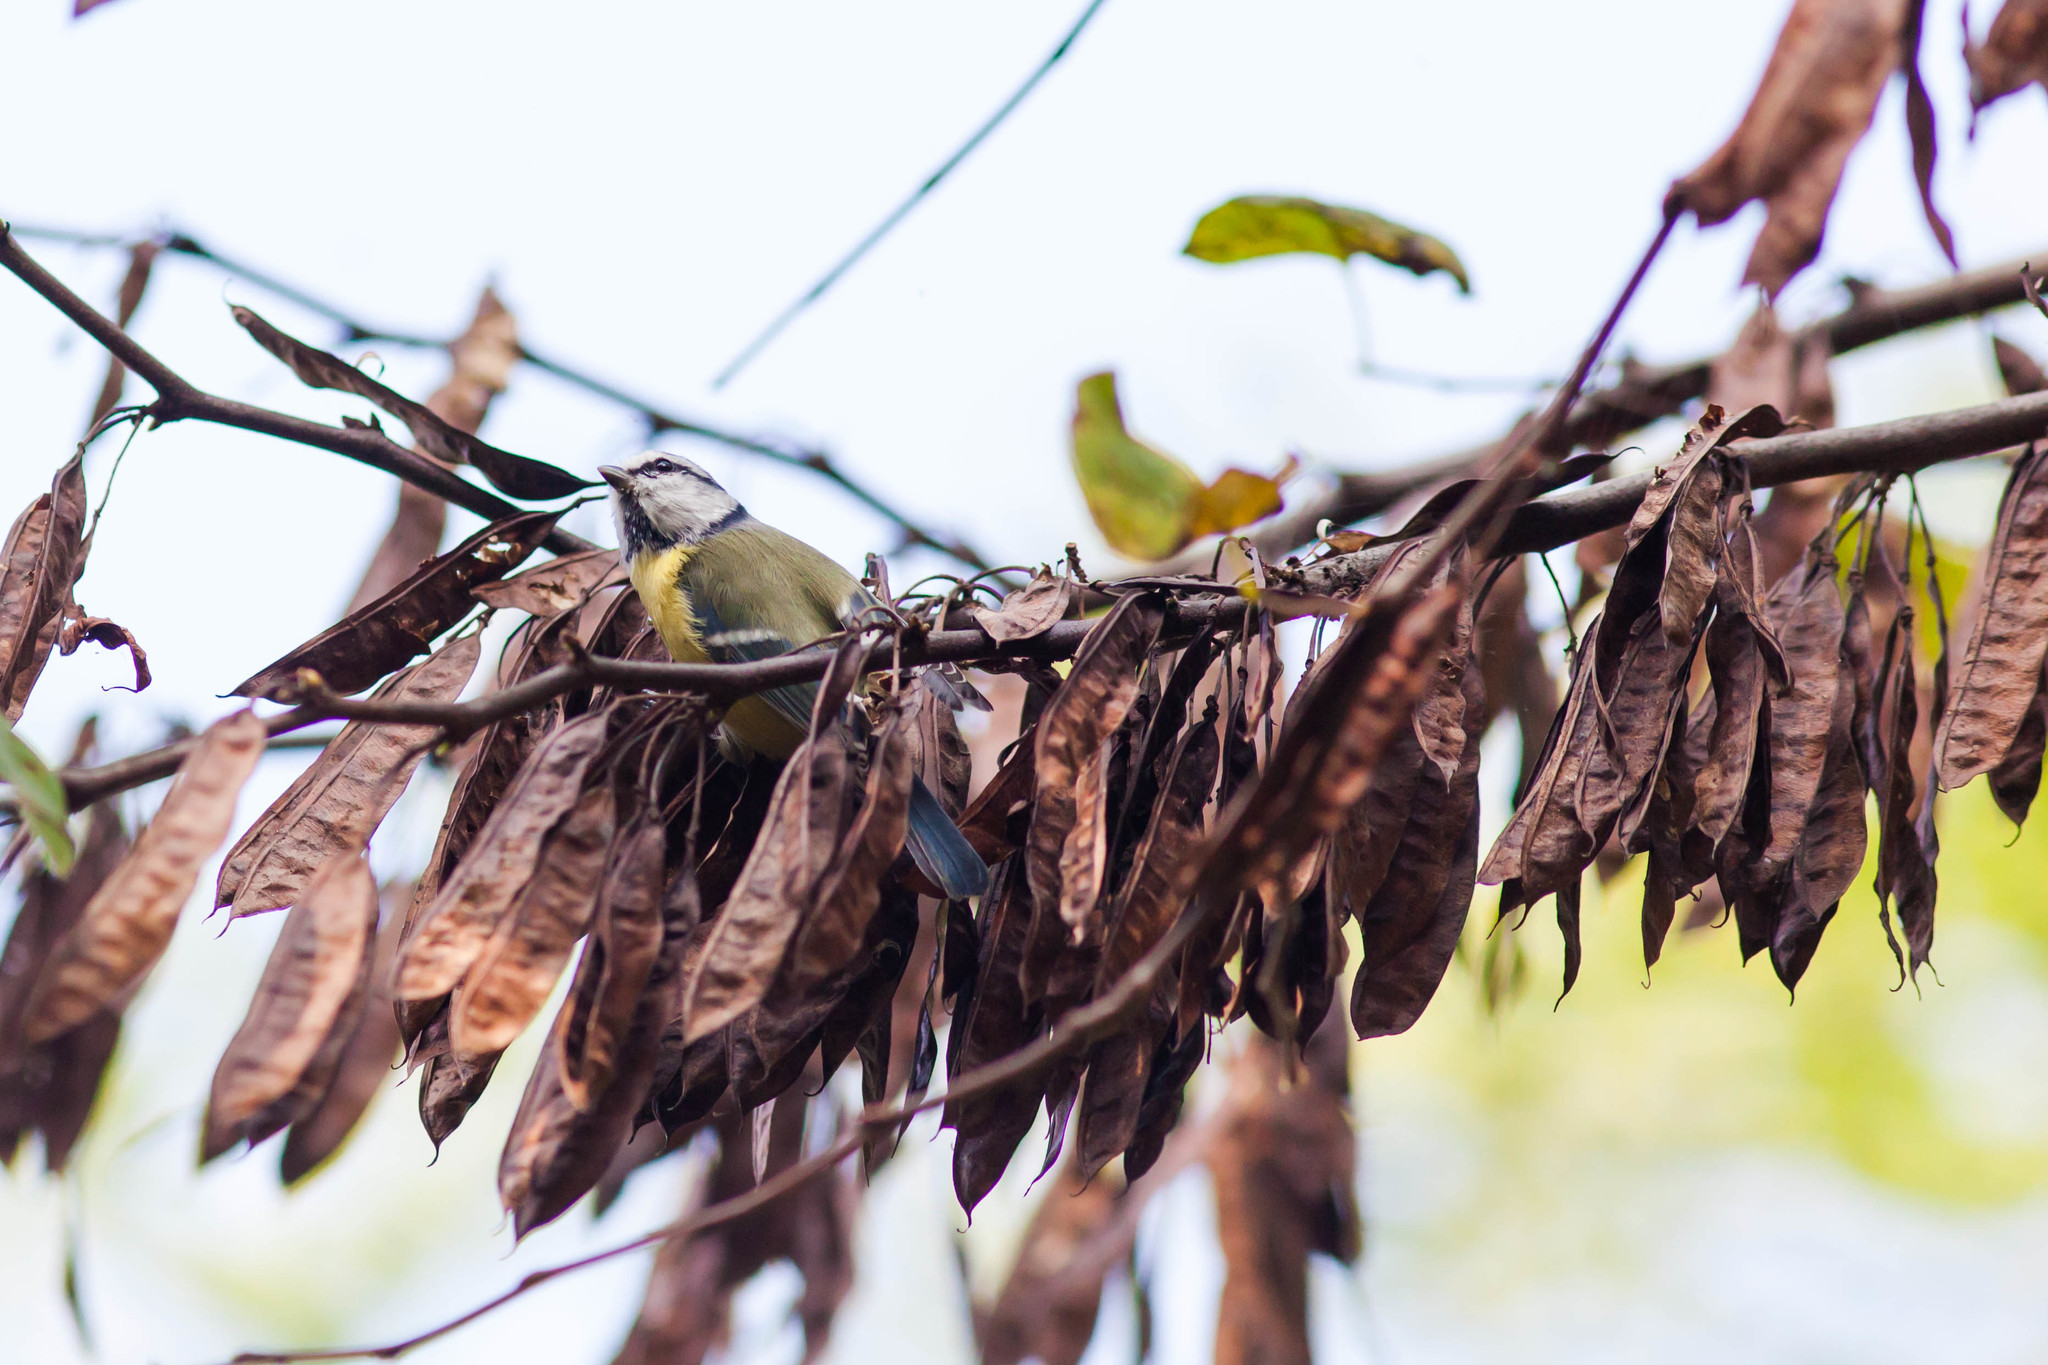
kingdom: Animalia
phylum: Chordata
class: Aves
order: Passeriformes
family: Paridae
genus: Cyanistes
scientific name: Cyanistes caeruleus
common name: Eurasian blue tit
